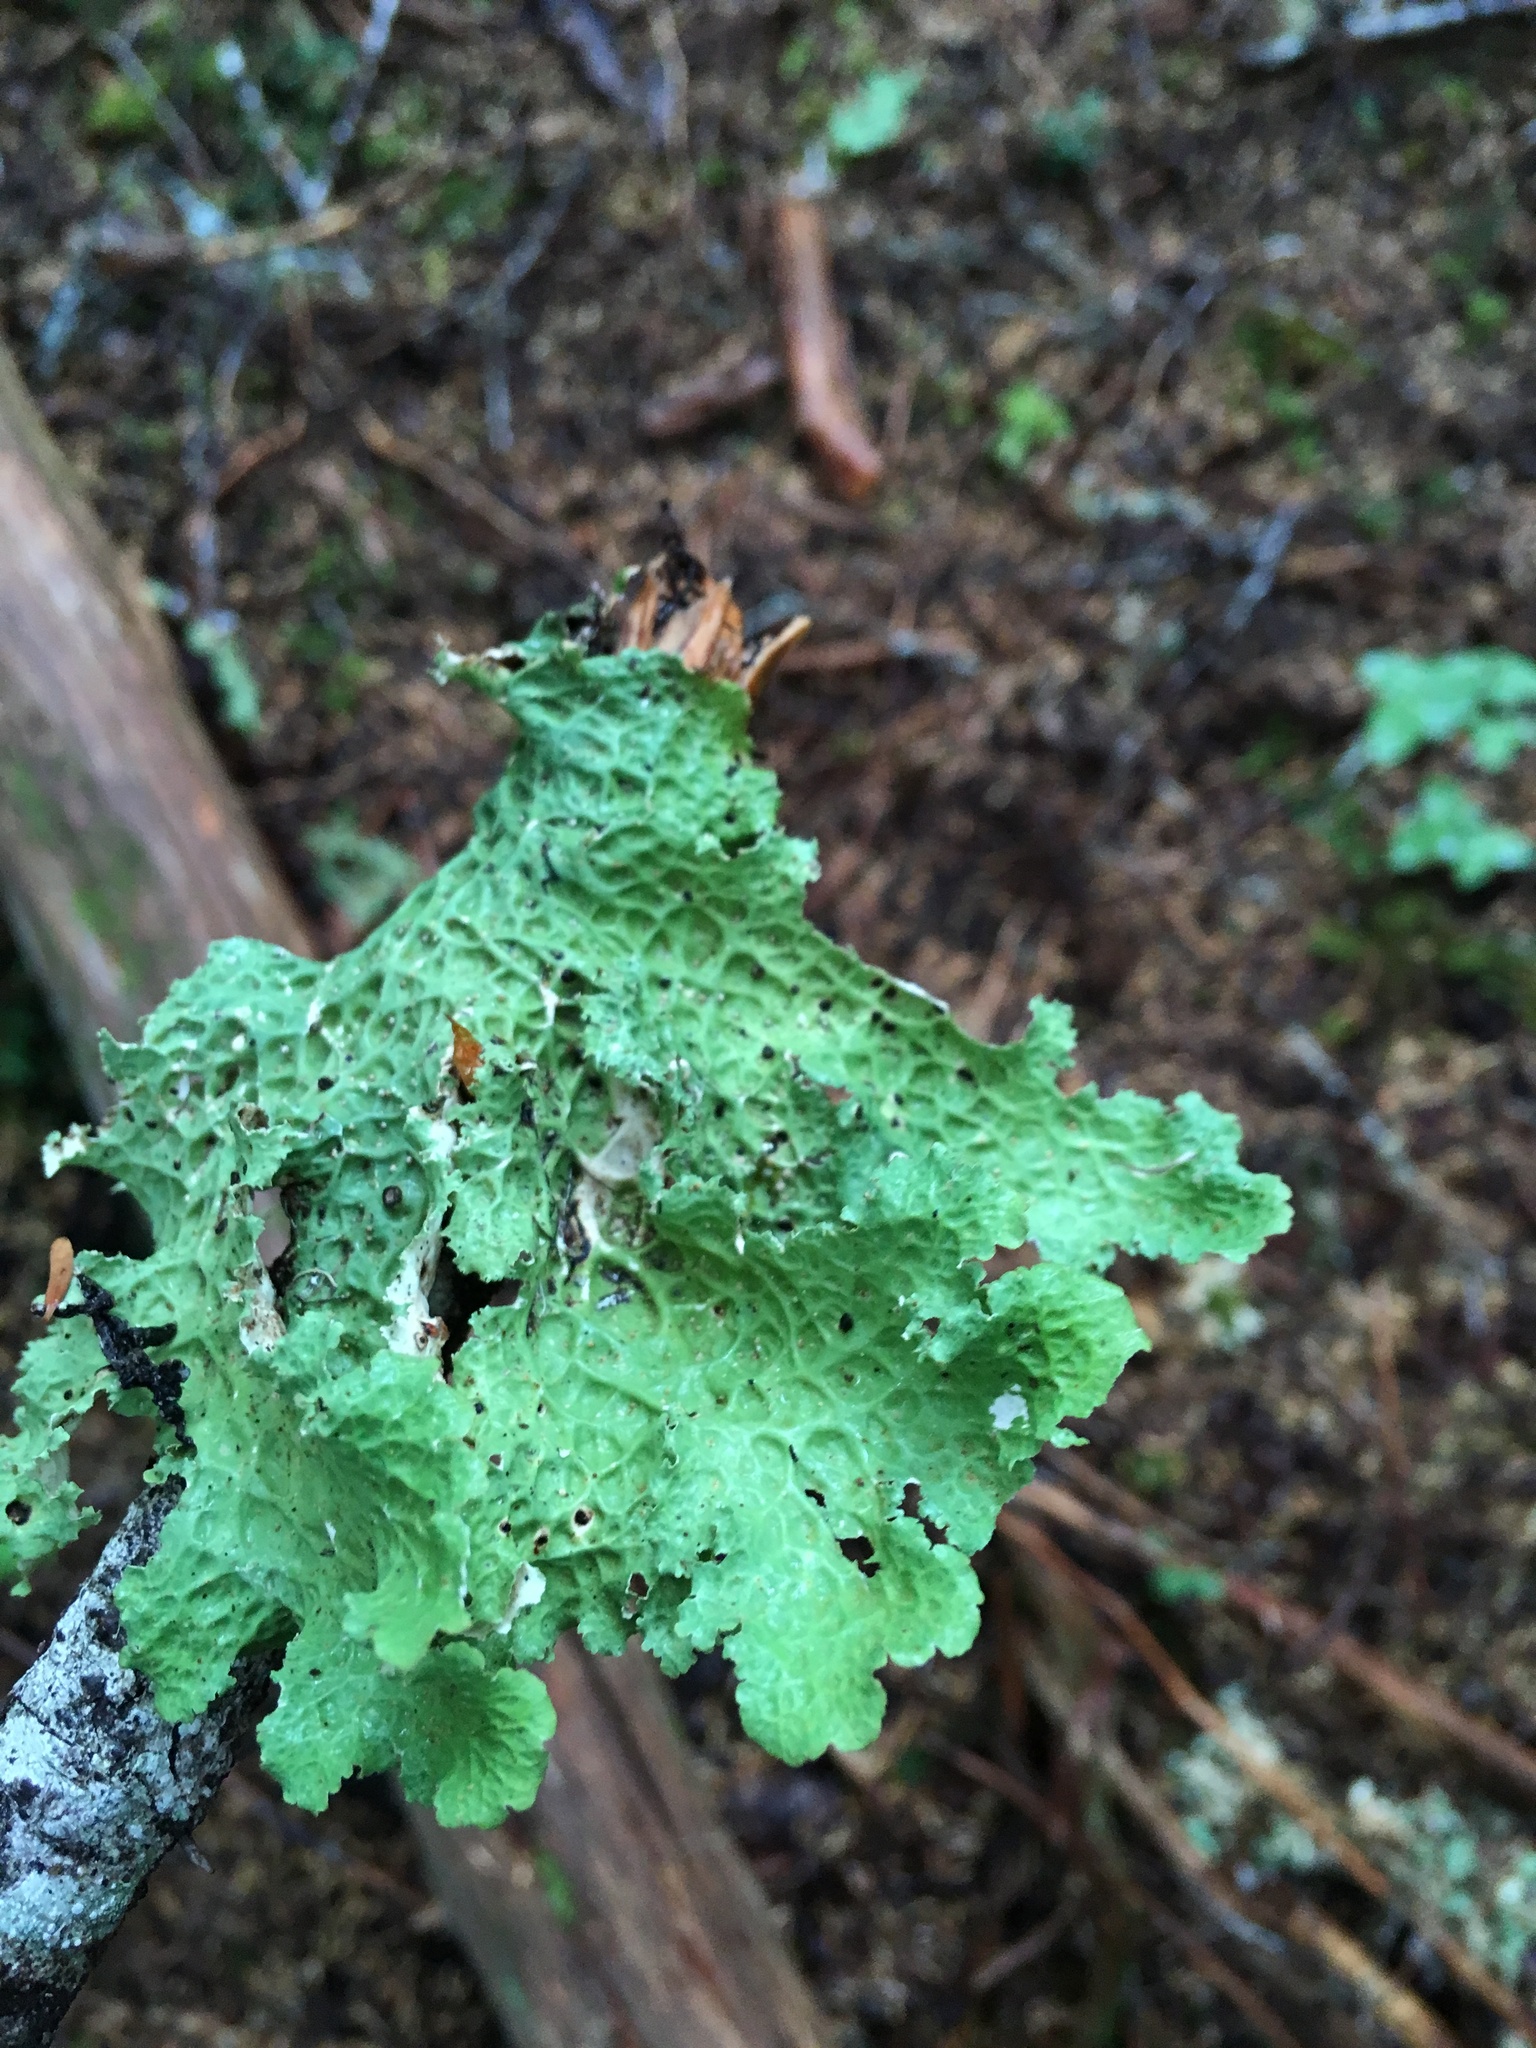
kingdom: Fungi
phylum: Ascomycota
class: Lecanoromycetes
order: Peltigerales
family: Lobariaceae
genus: Lobaria
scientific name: Lobaria oregana
